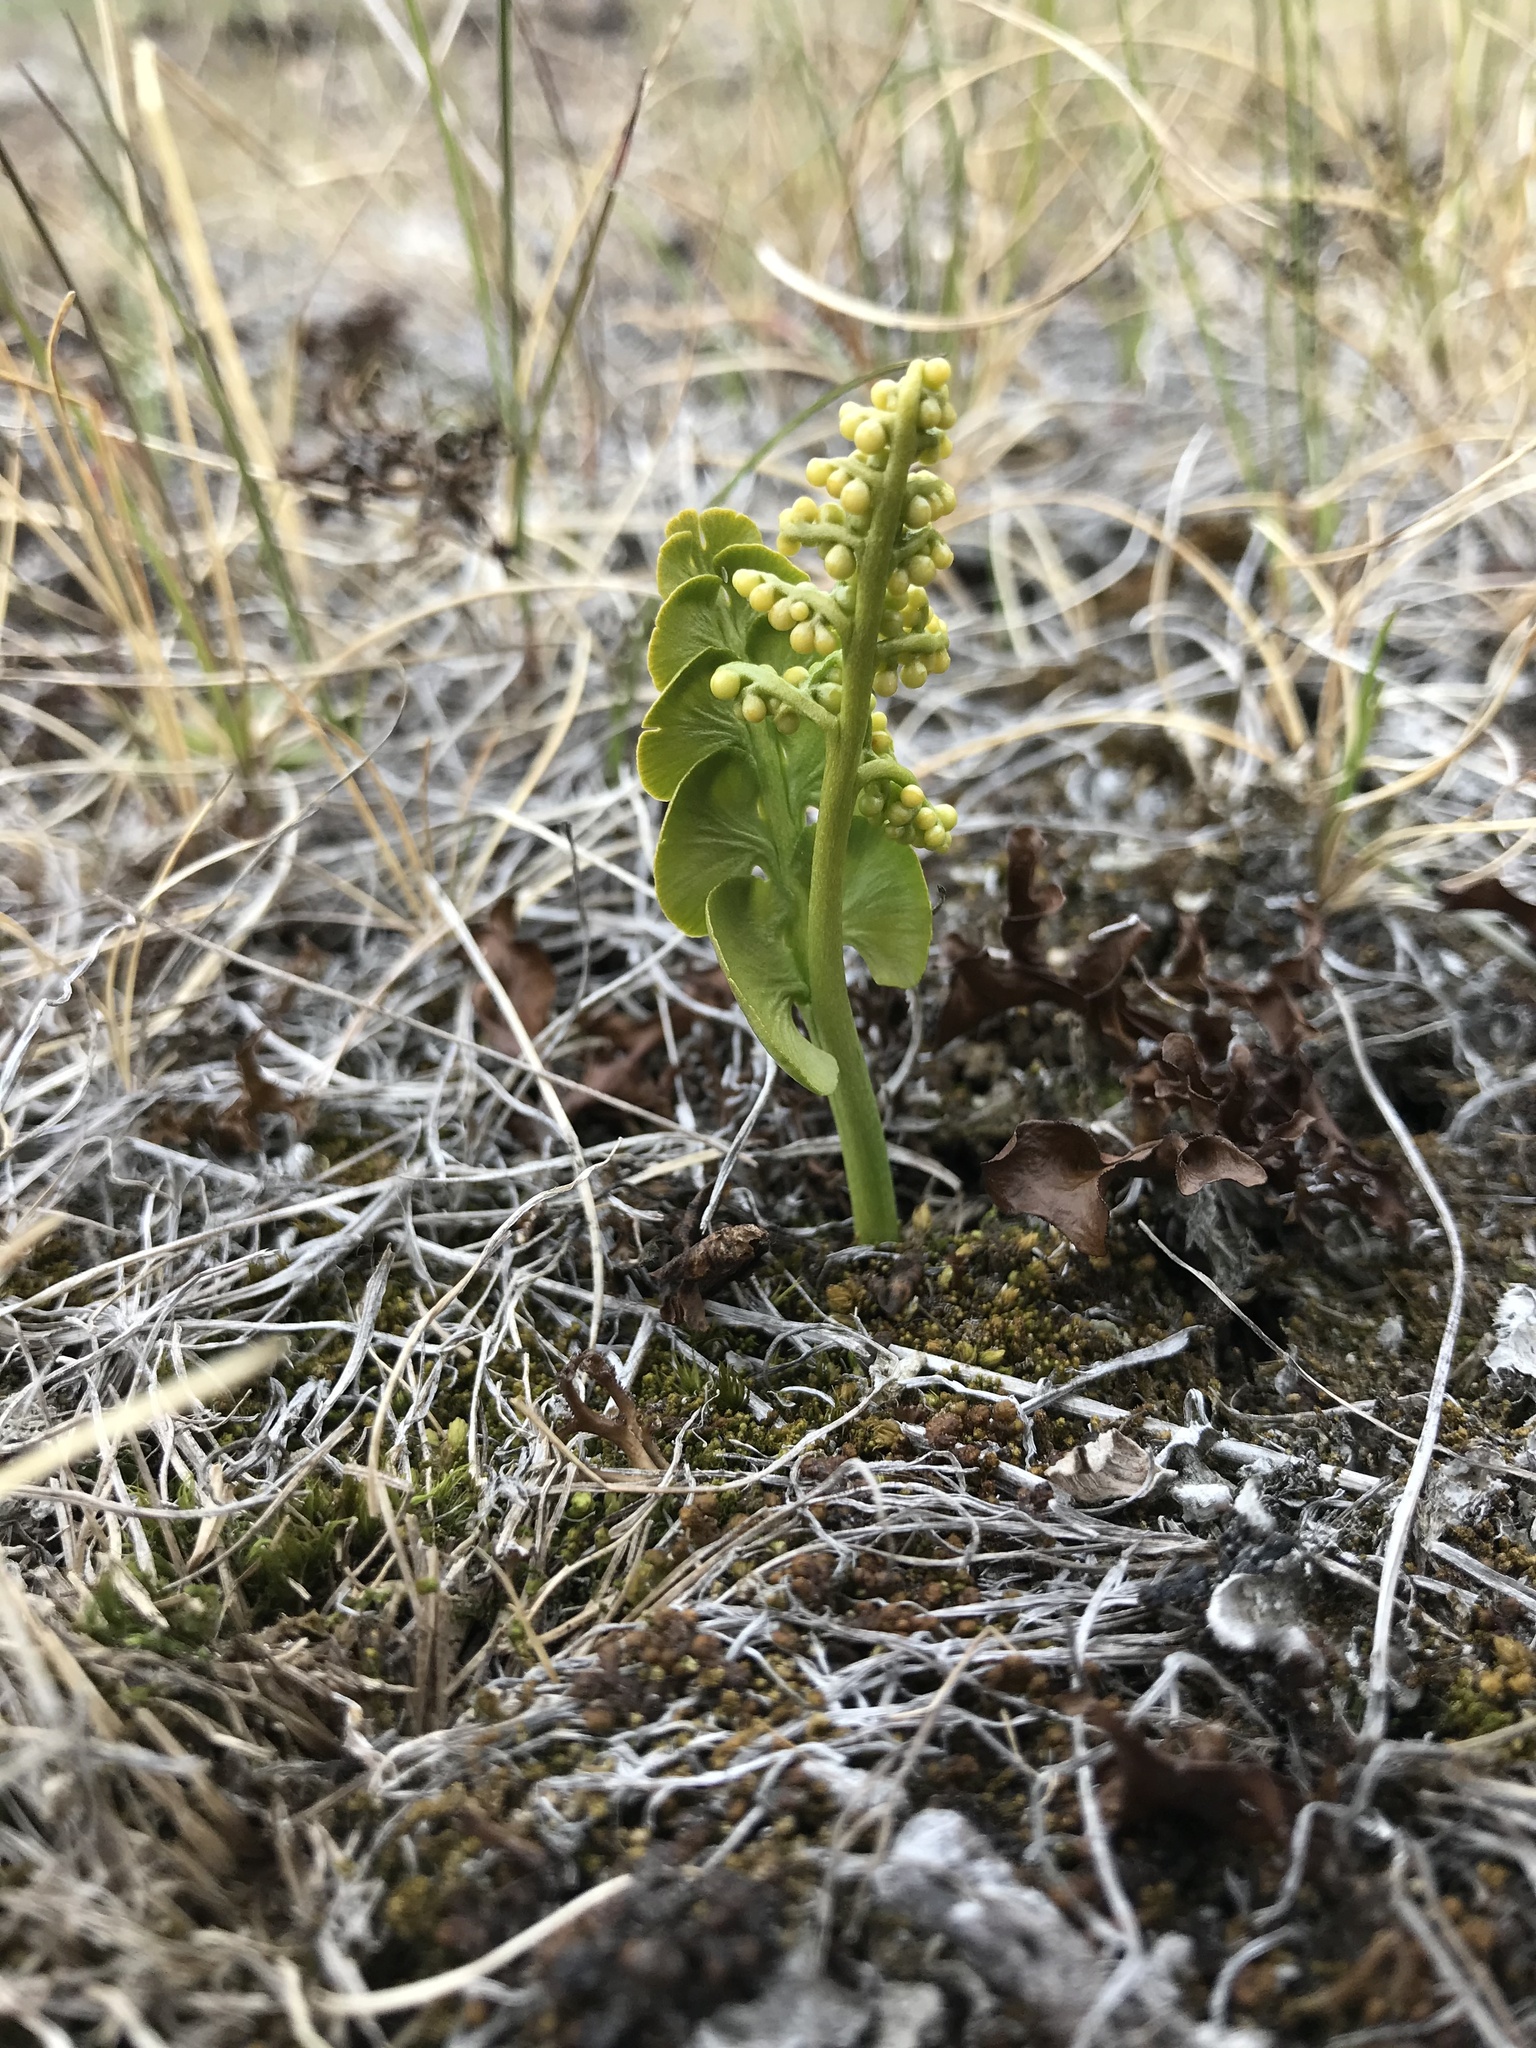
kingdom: Plantae
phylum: Tracheophyta
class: Polypodiopsida
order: Ophioglossales
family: Ophioglossaceae
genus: Botrychium
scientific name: Botrychium lunaria
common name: Moonwort
